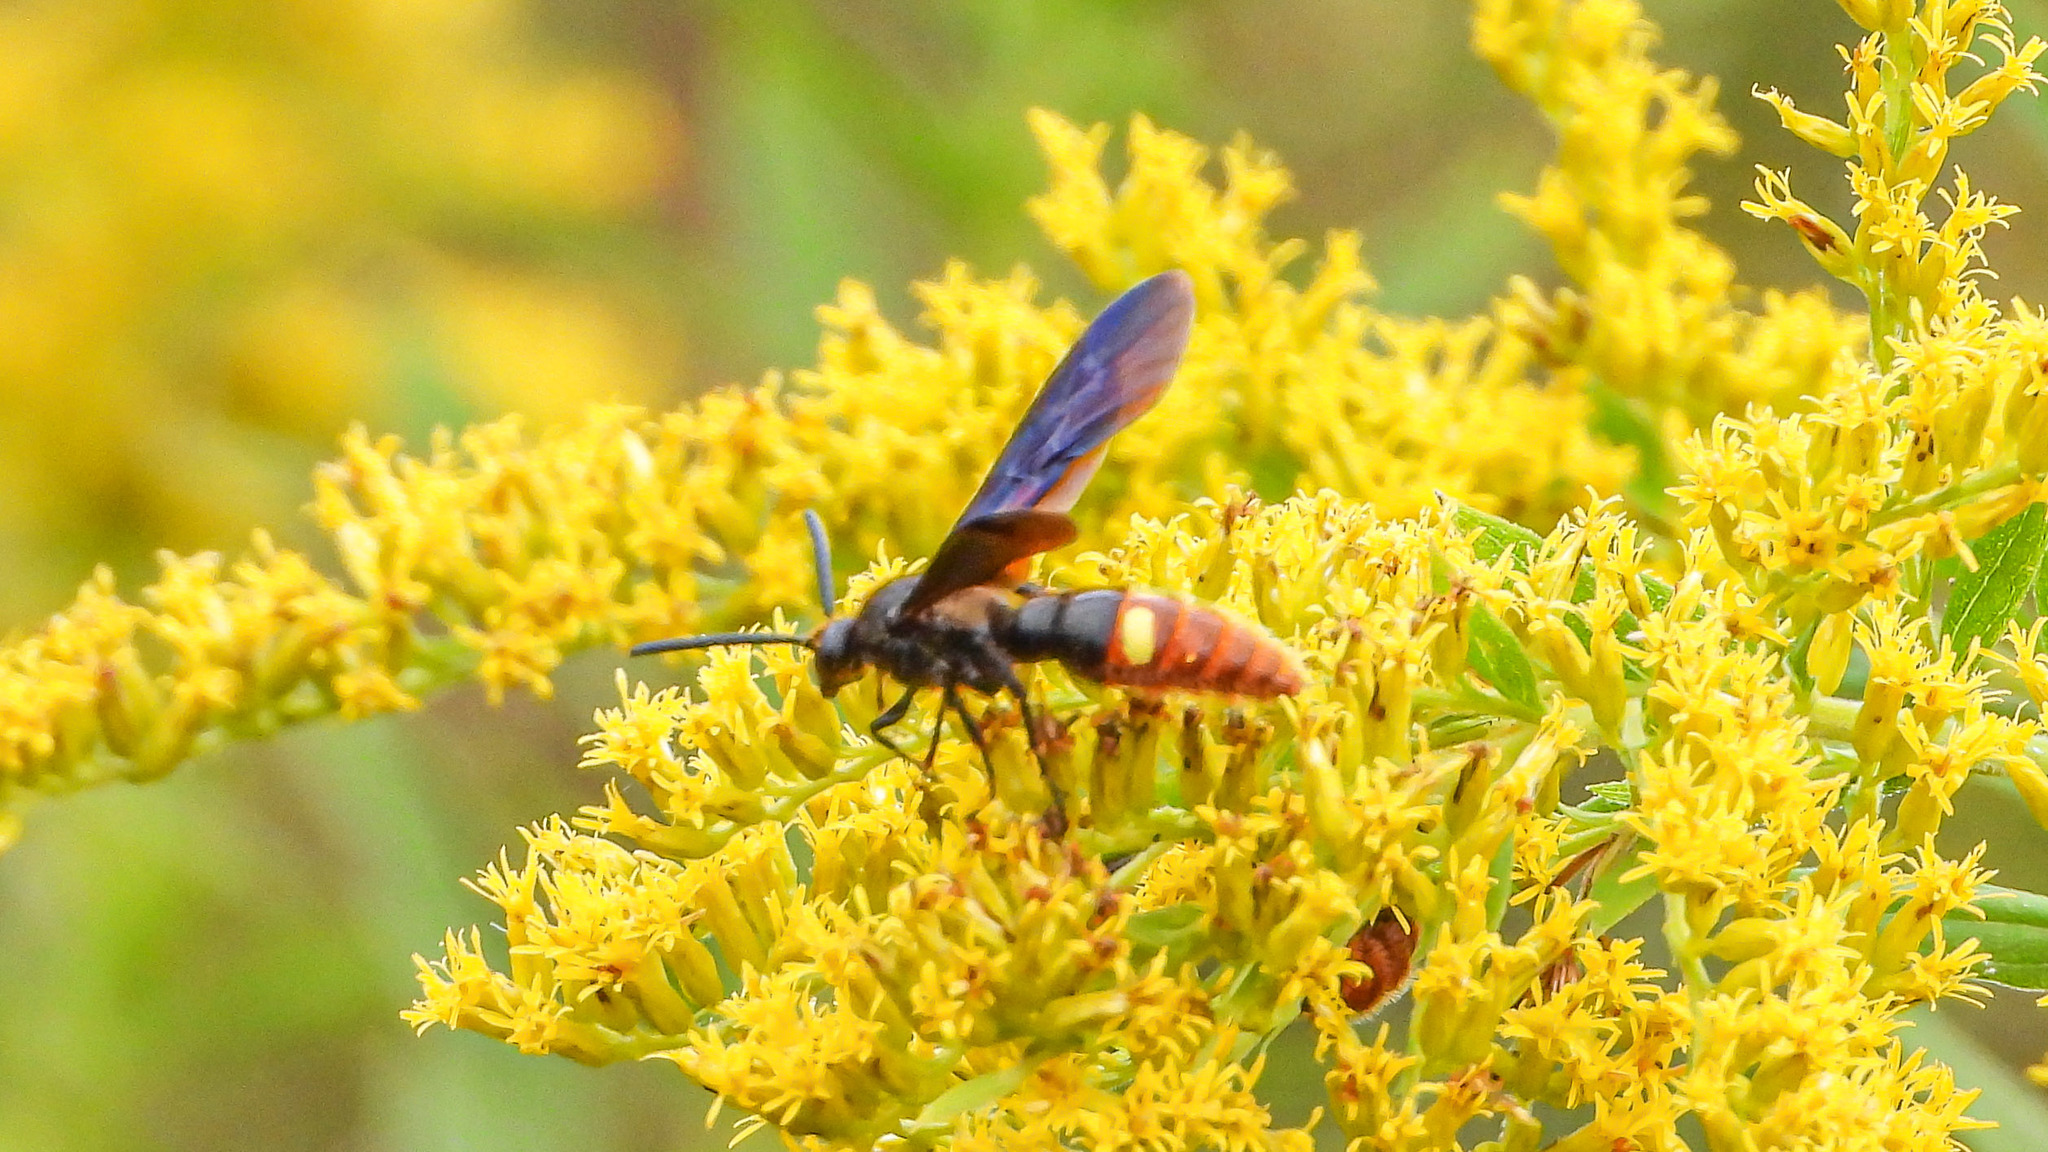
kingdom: Animalia
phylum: Arthropoda
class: Insecta
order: Hymenoptera
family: Scoliidae
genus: Scolia
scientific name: Scolia dubia
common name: Blue-winged scoliid wasp
